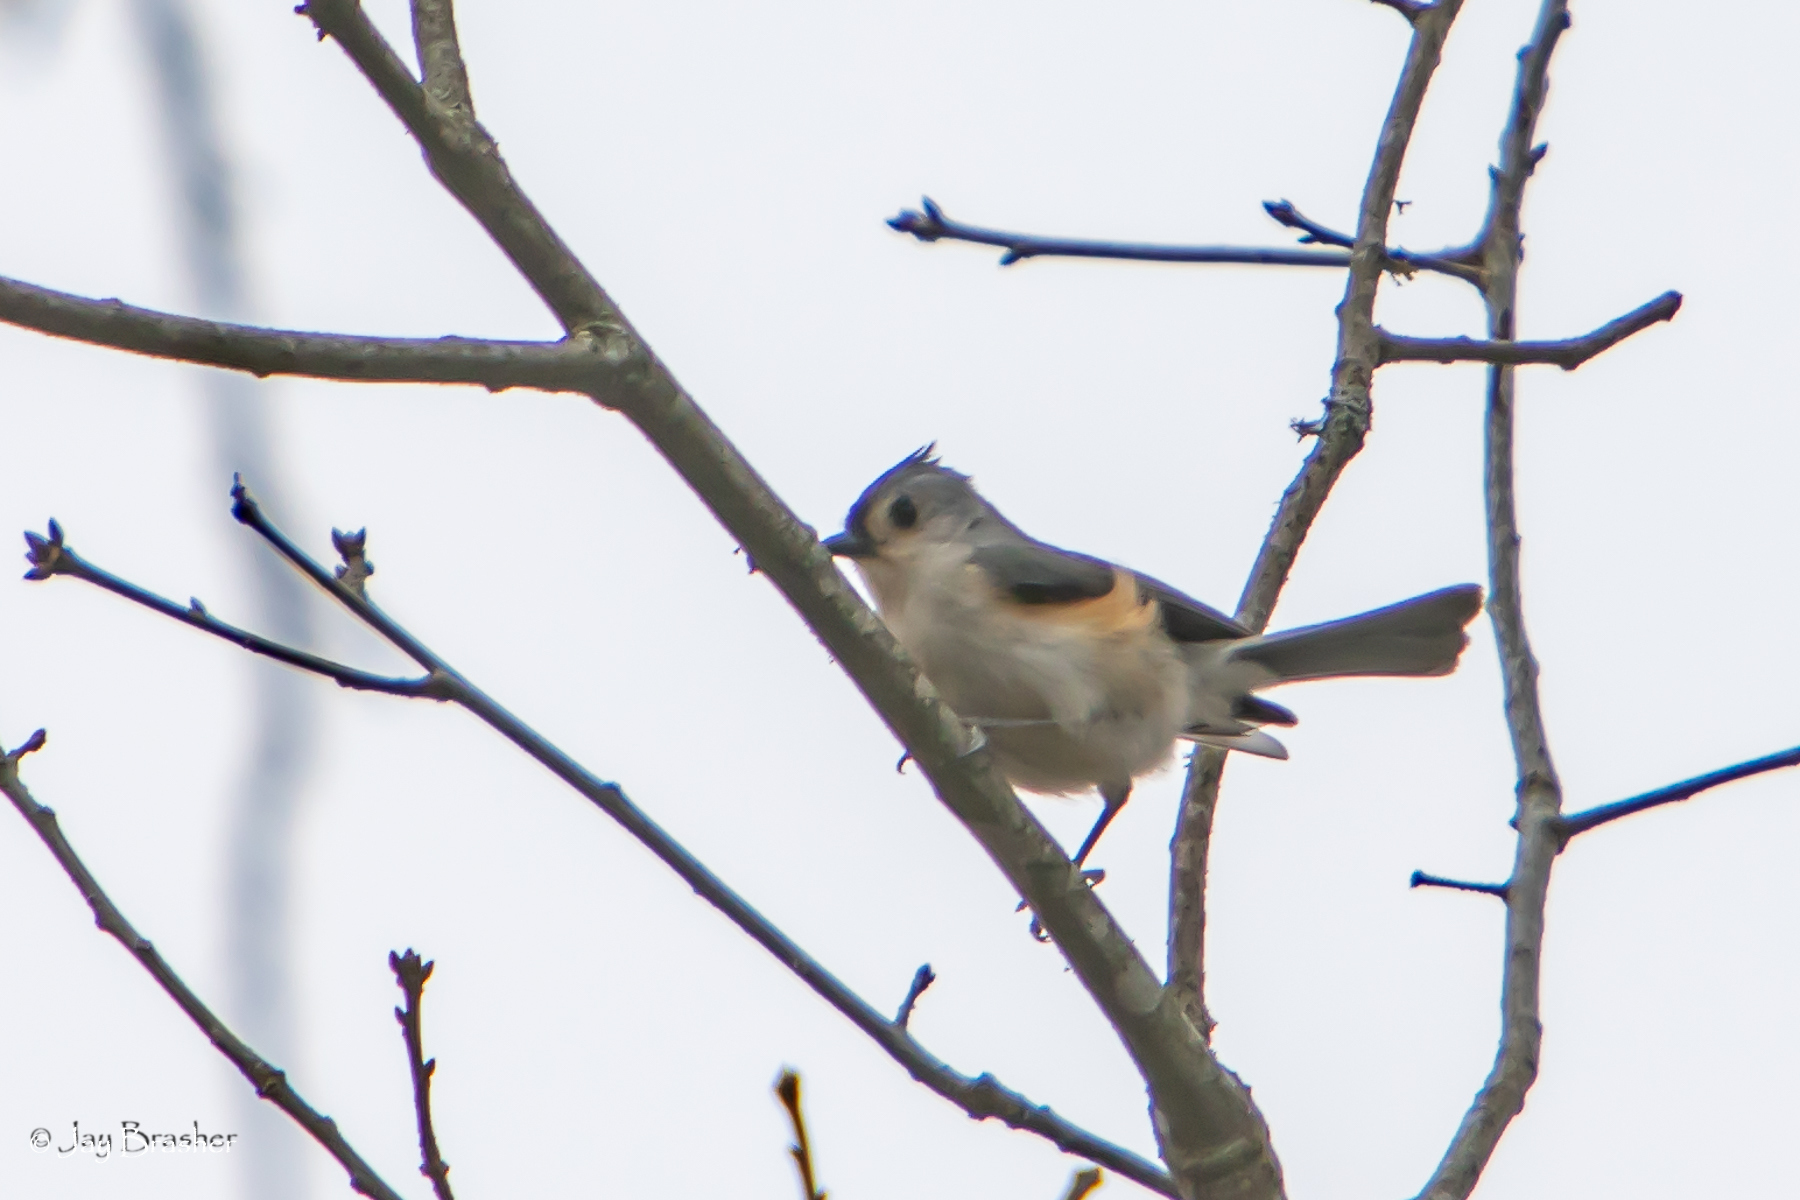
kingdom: Animalia
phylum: Chordata
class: Aves
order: Passeriformes
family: Paridae
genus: Baeolophus
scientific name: Baeolophus bicolor
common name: Tufted titmouse
